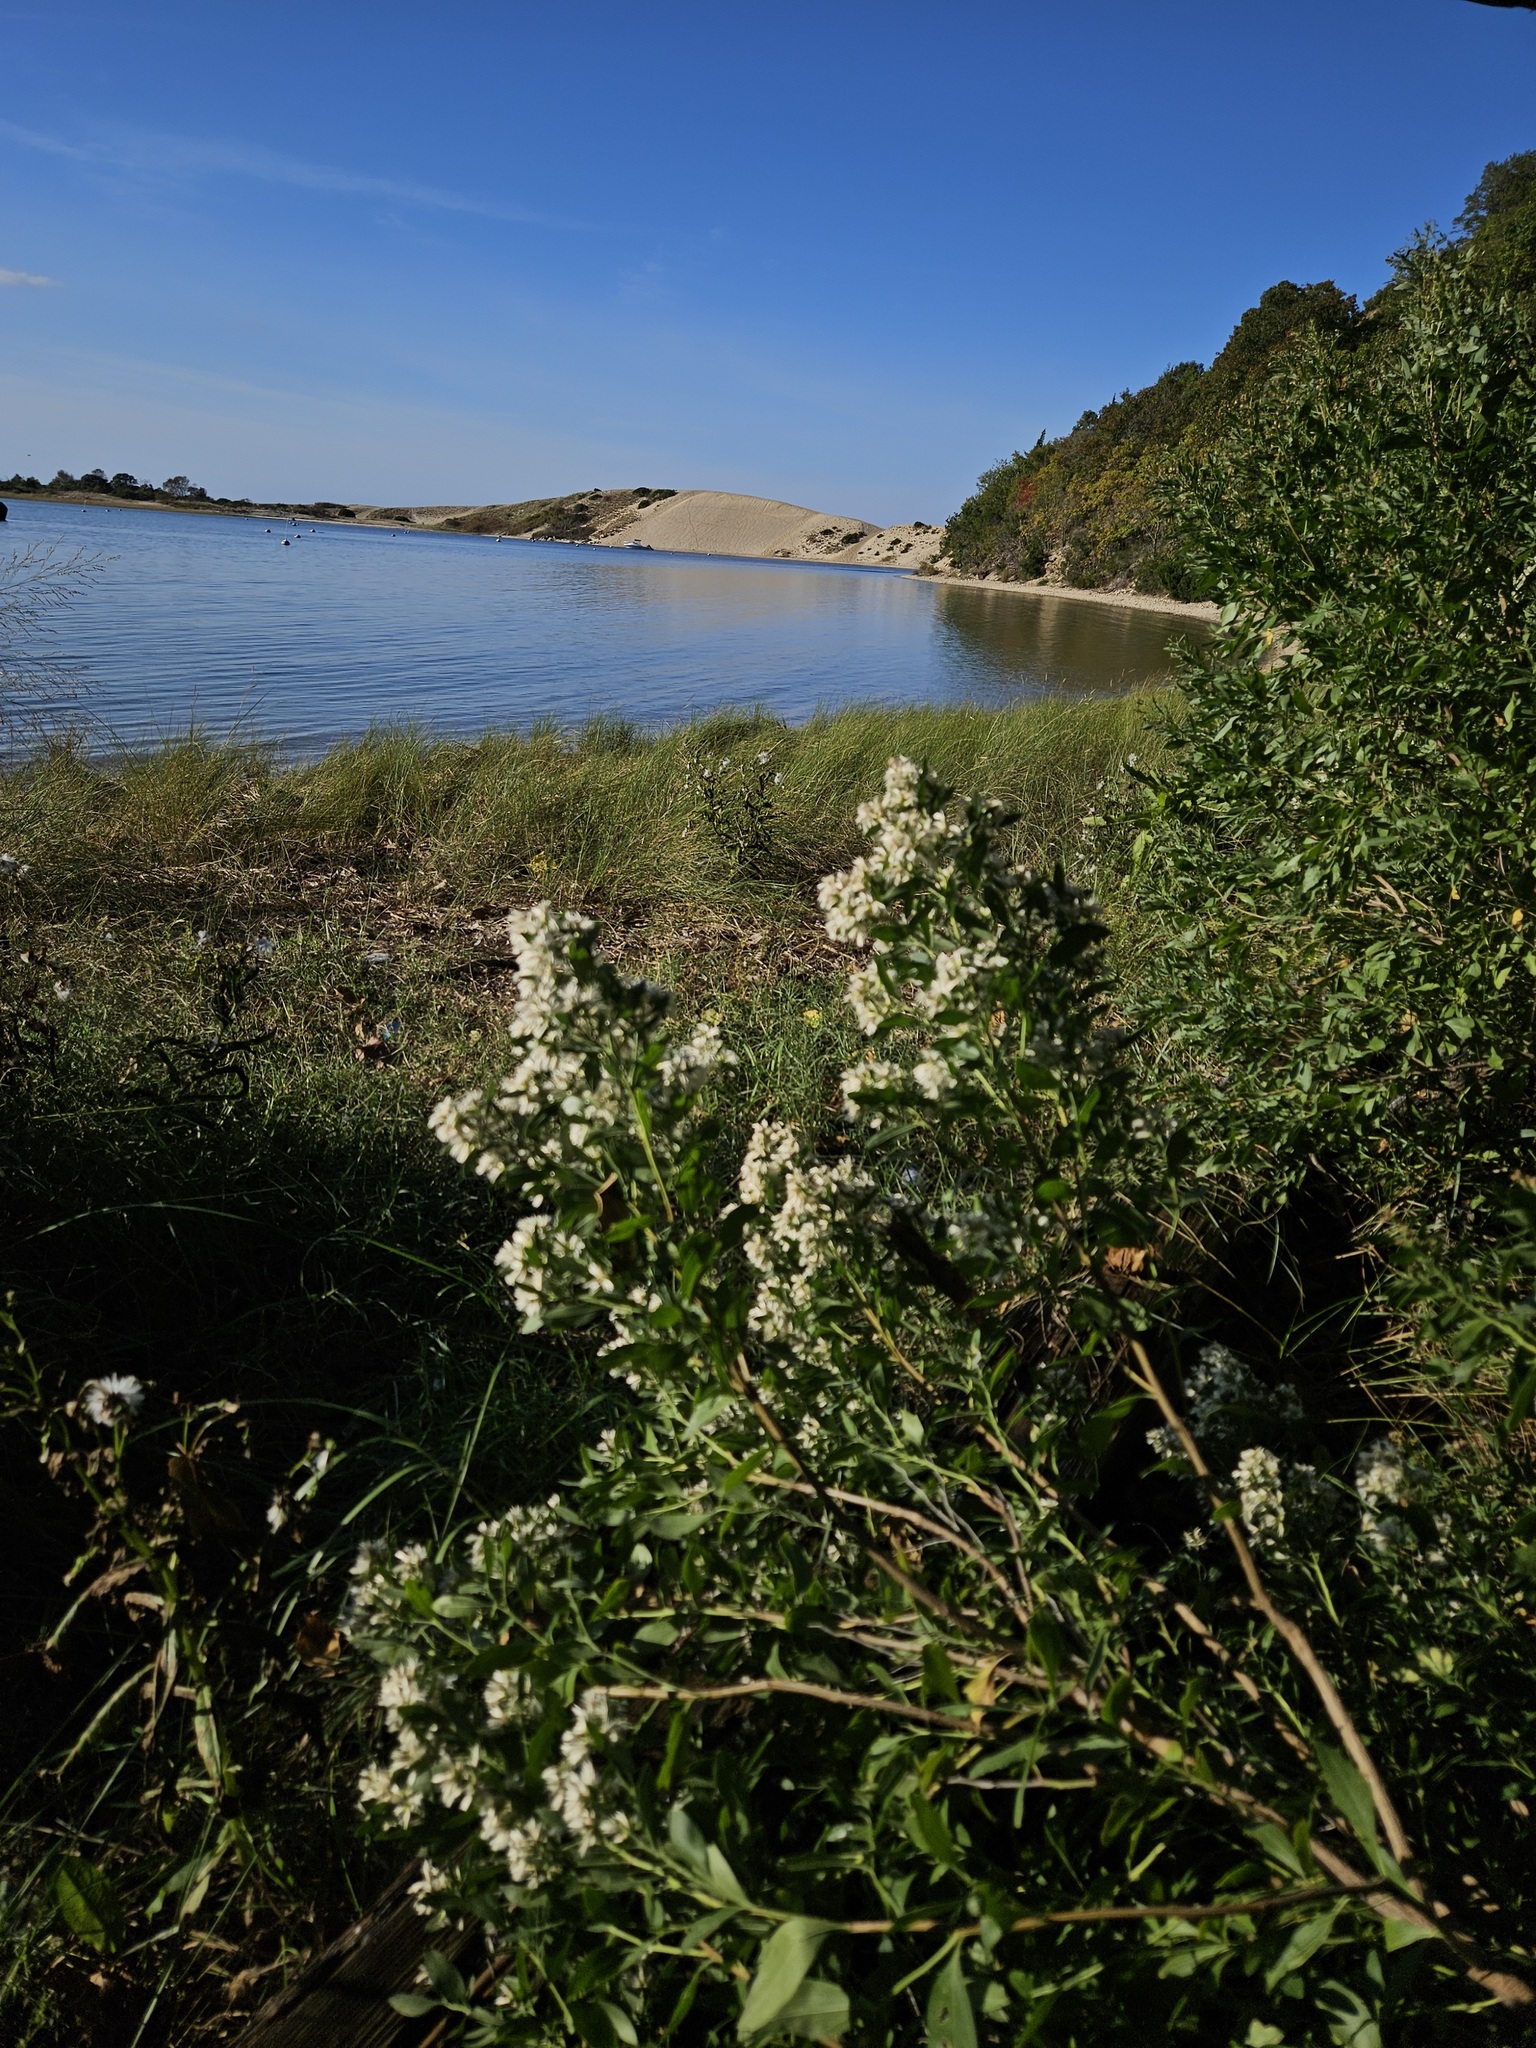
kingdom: Plantae
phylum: Tracheophyta
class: Magnoliopsida
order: Asterales
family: Asteraceae
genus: Baccharis
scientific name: Baccharis halimifolia
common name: Eastern baccharis
